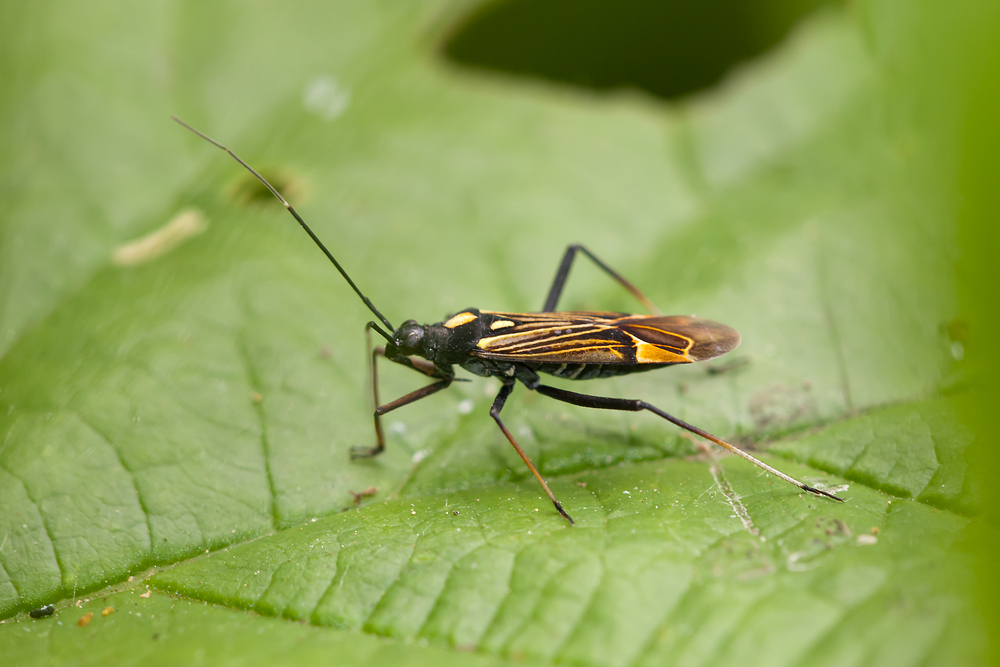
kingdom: Animalia
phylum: Arthropoda
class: Insecta
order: Hemiptera
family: Miridae
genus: Miris
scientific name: Miris striatus
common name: Fine streaked bugkin
